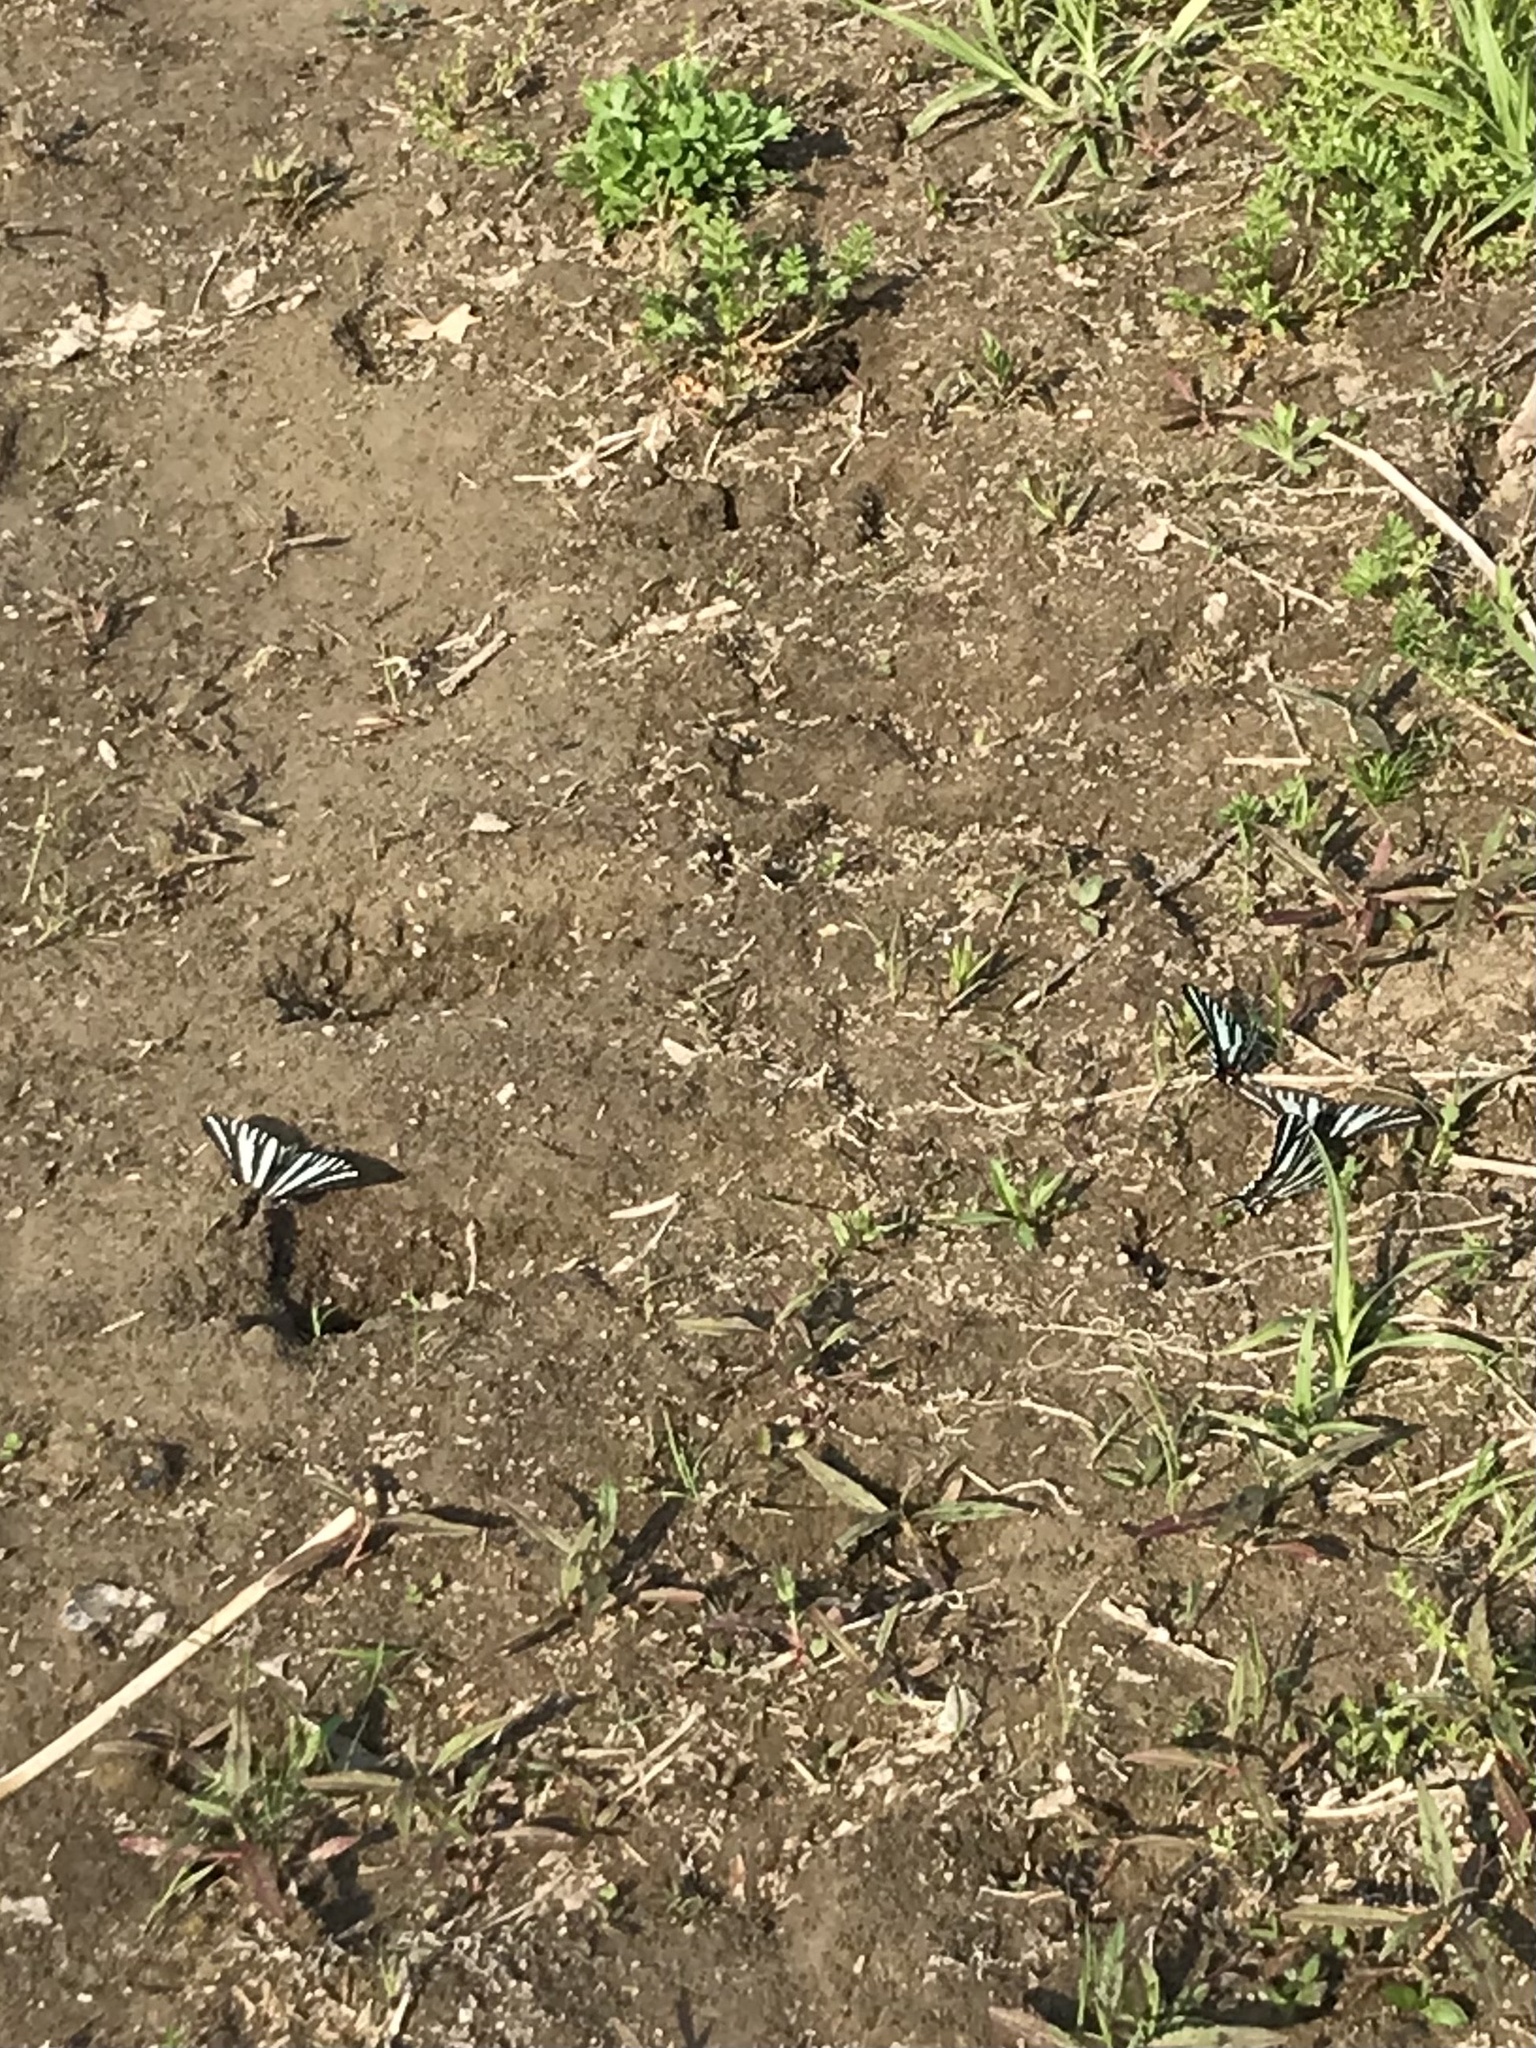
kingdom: Animalia
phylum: Arthropoda
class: Insecta
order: Lepidoptera
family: Papilionidae
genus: Protographium
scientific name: Protographium marcellus
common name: Zebra swallowtail
